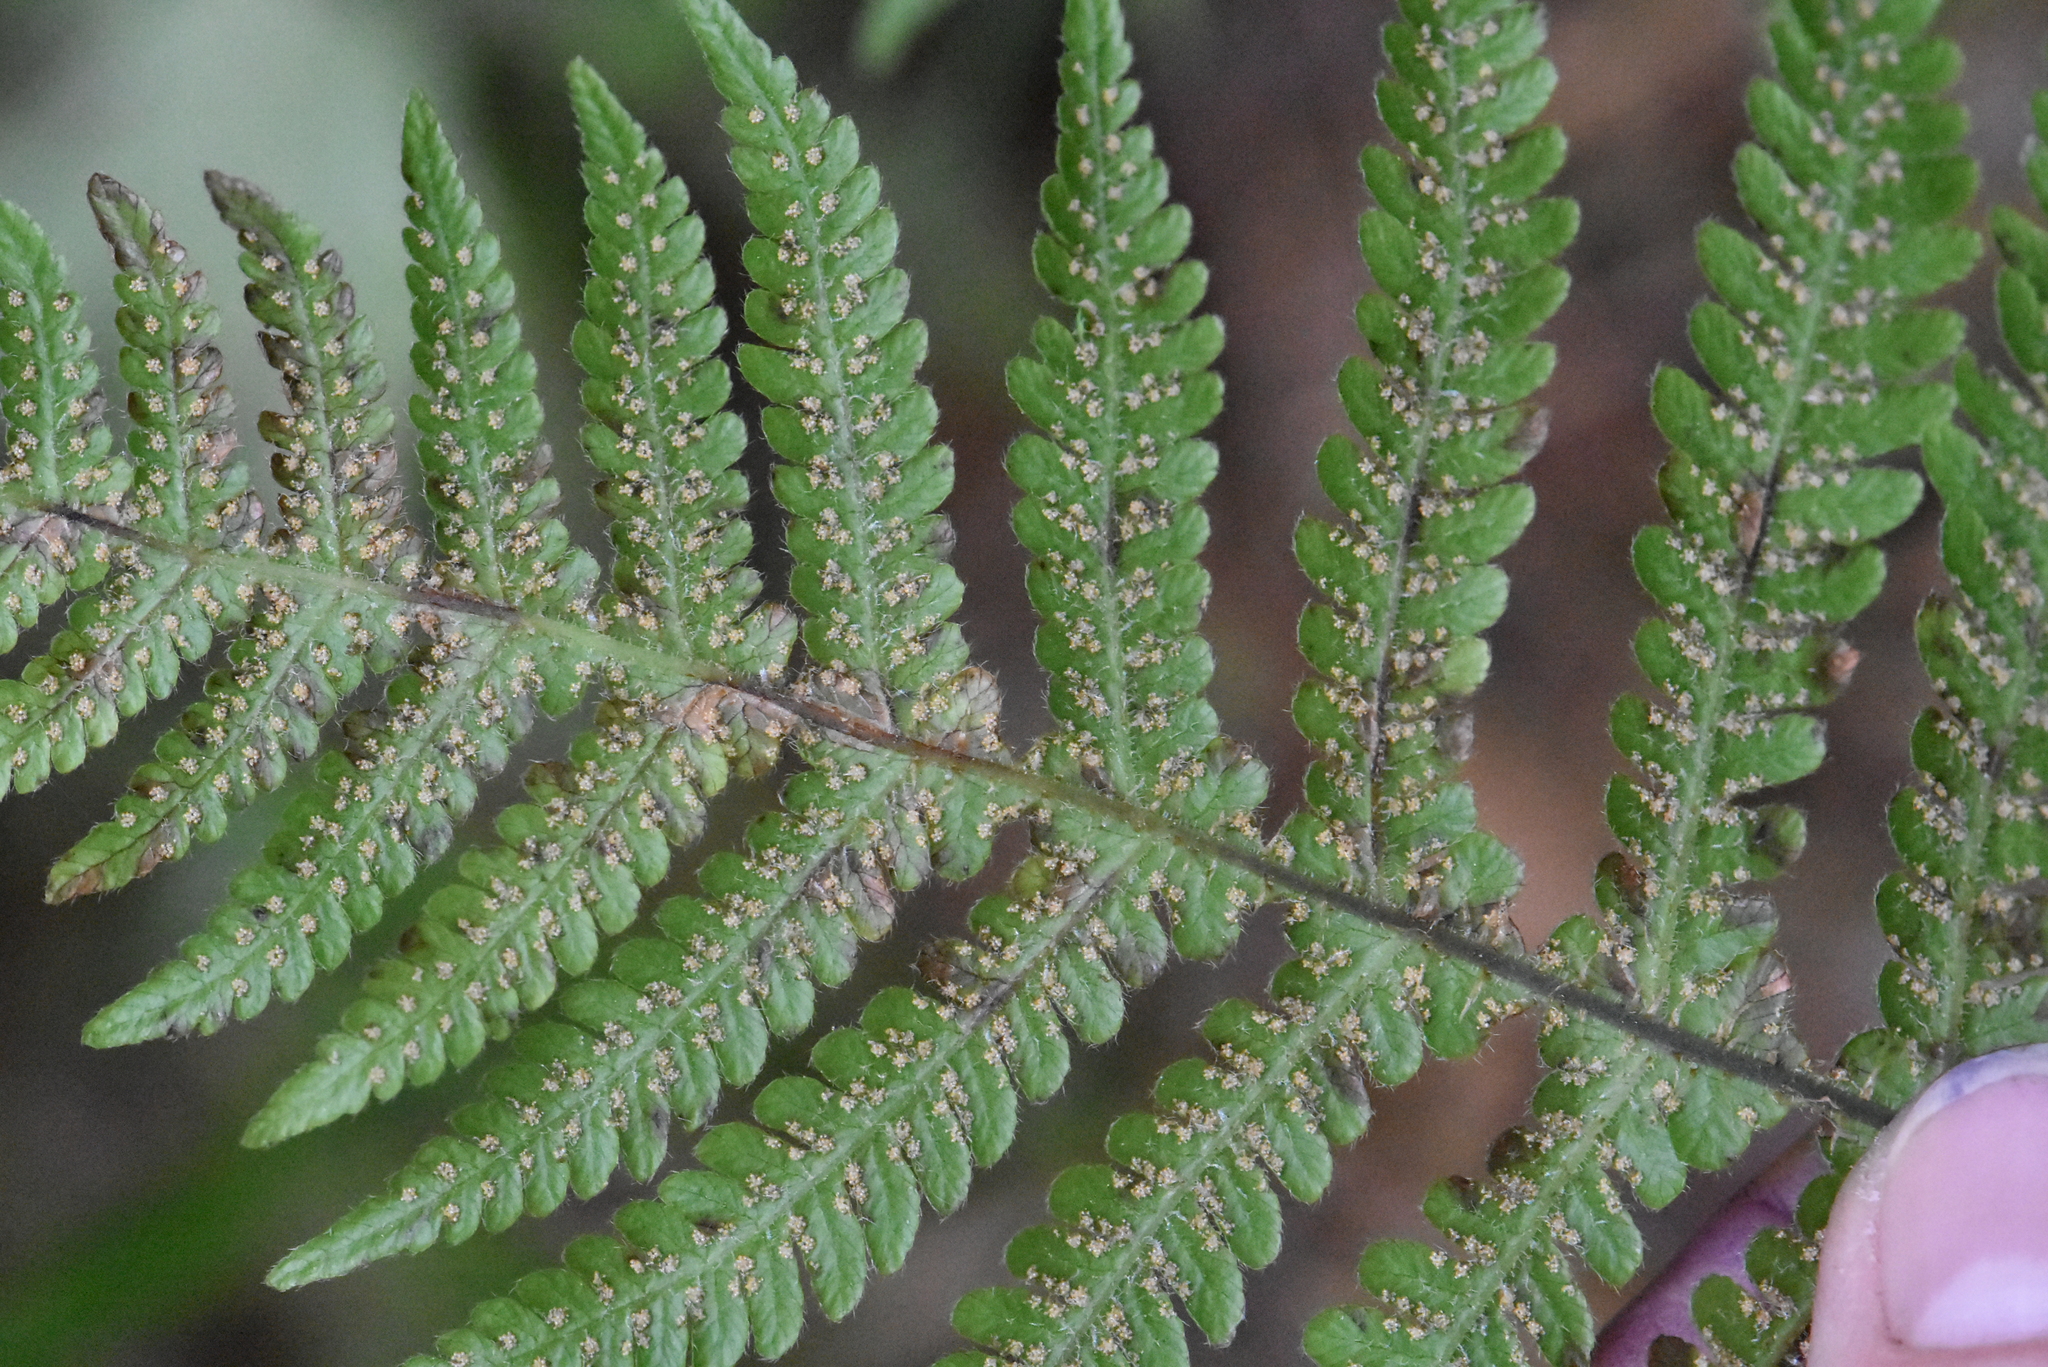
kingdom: Plantae
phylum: Tracheophyta
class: Polypodiopsida
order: Polypodiales
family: Thelypteridaceae
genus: Phegopteris
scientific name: Phegopteris connectilis
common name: Beech fern
